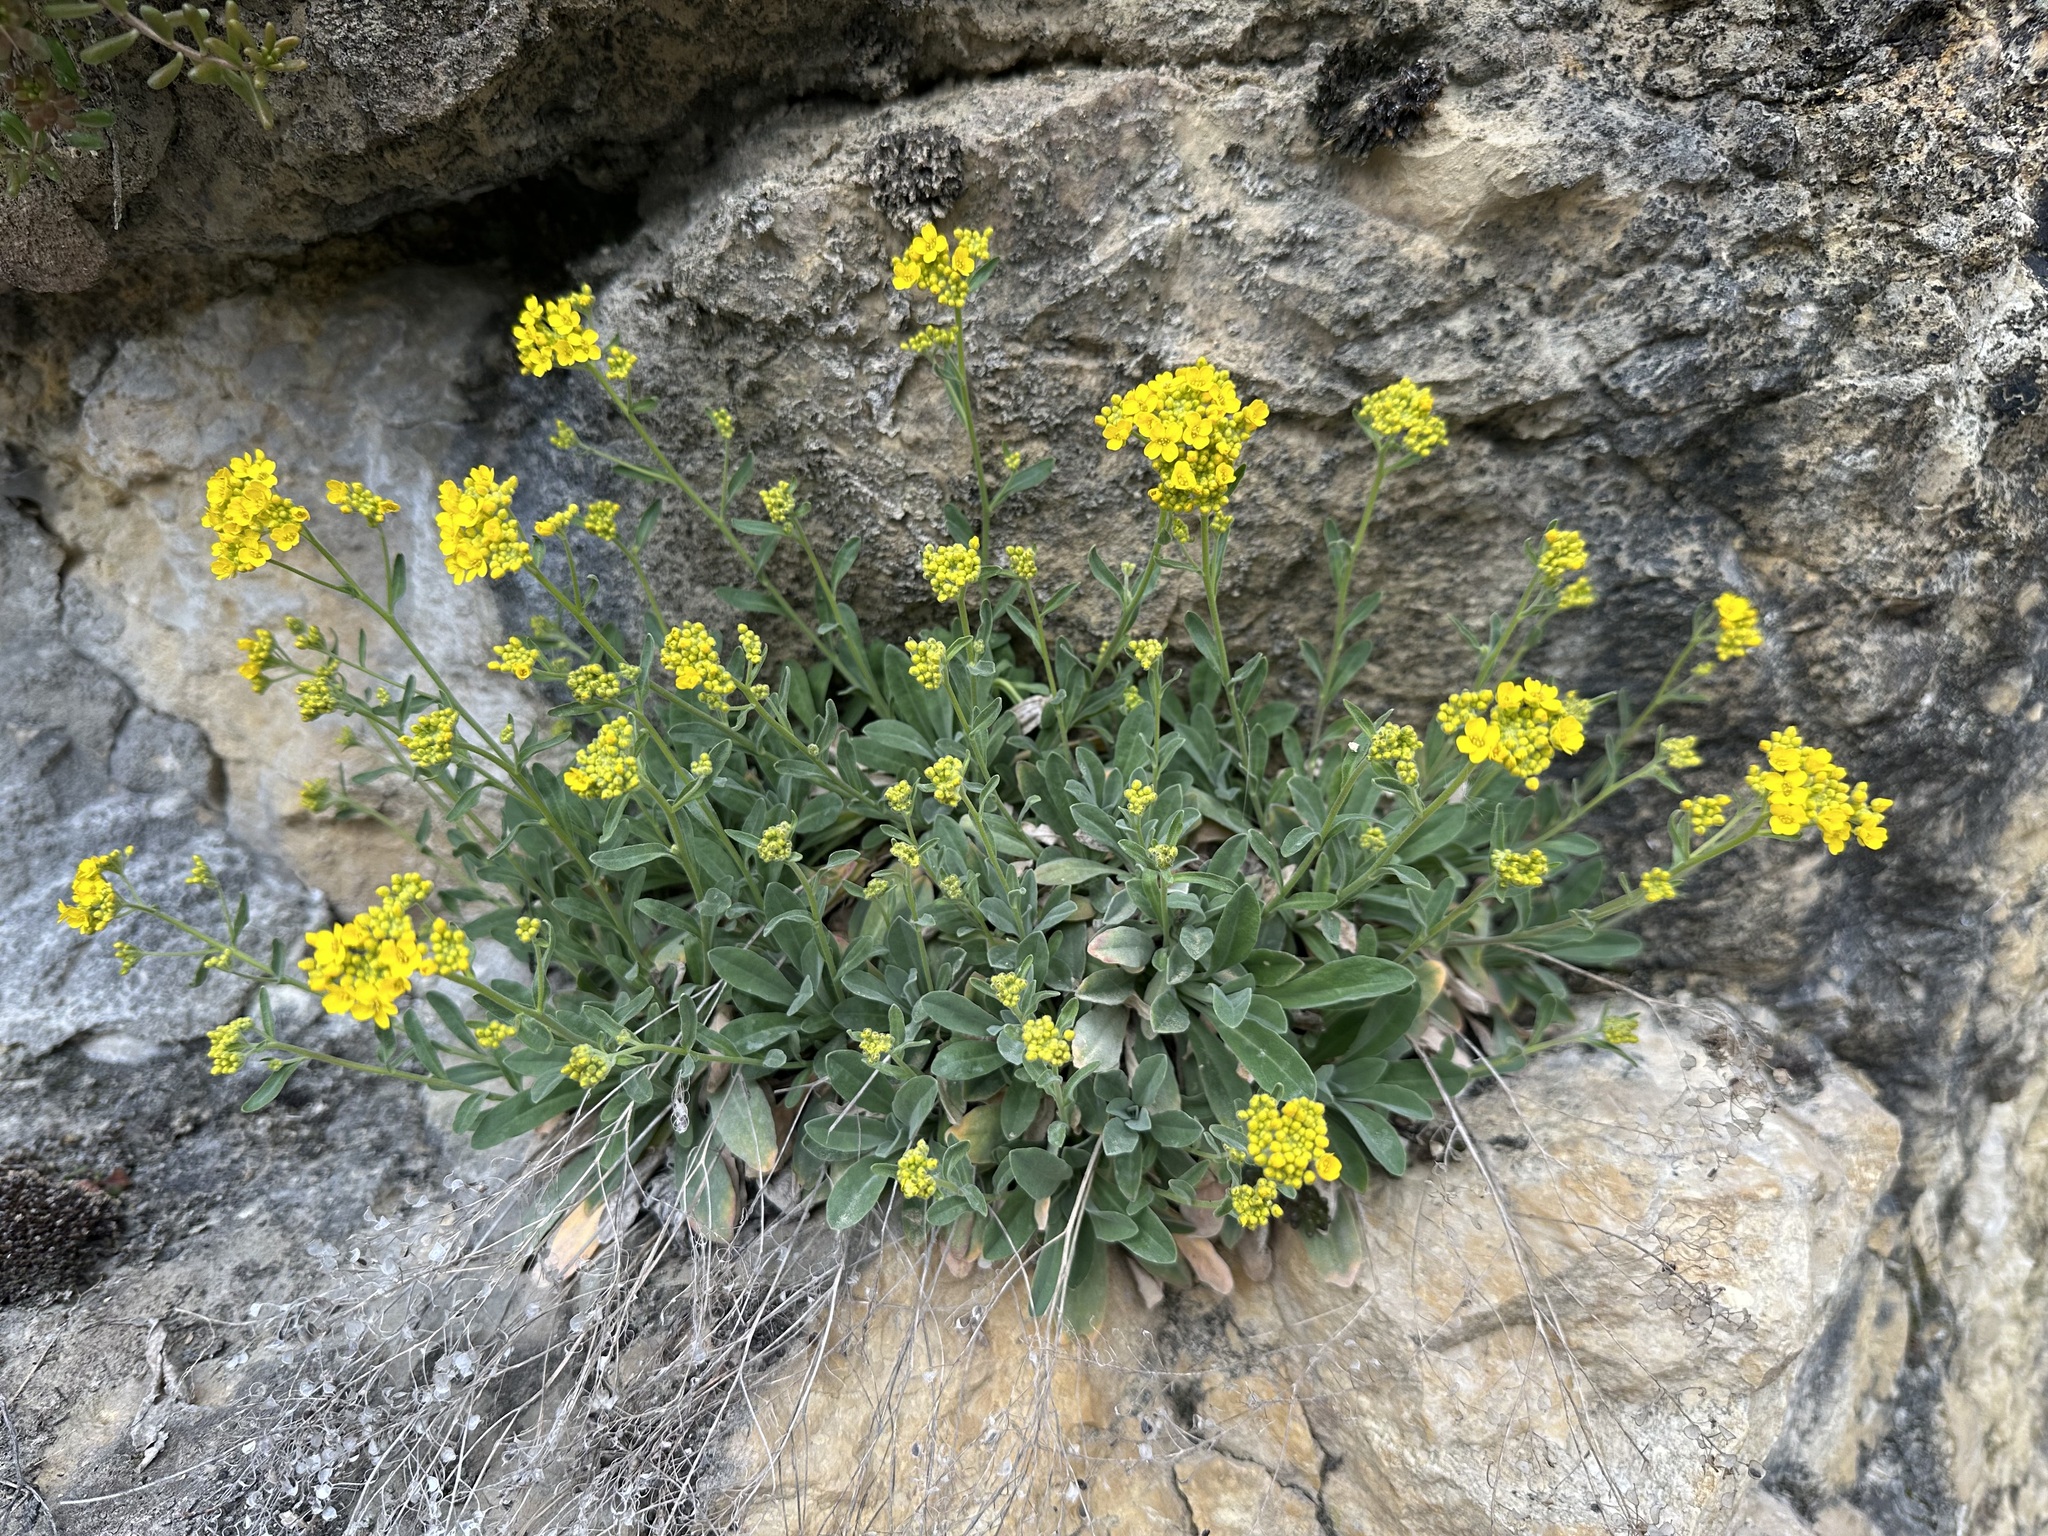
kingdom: Plantae
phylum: Tracheophyta
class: Magnoliopsida
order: Brassicales
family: Brassicaceae
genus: Aurinia
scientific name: Aurinia saxatilis
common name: Golden-tuft alyssum
